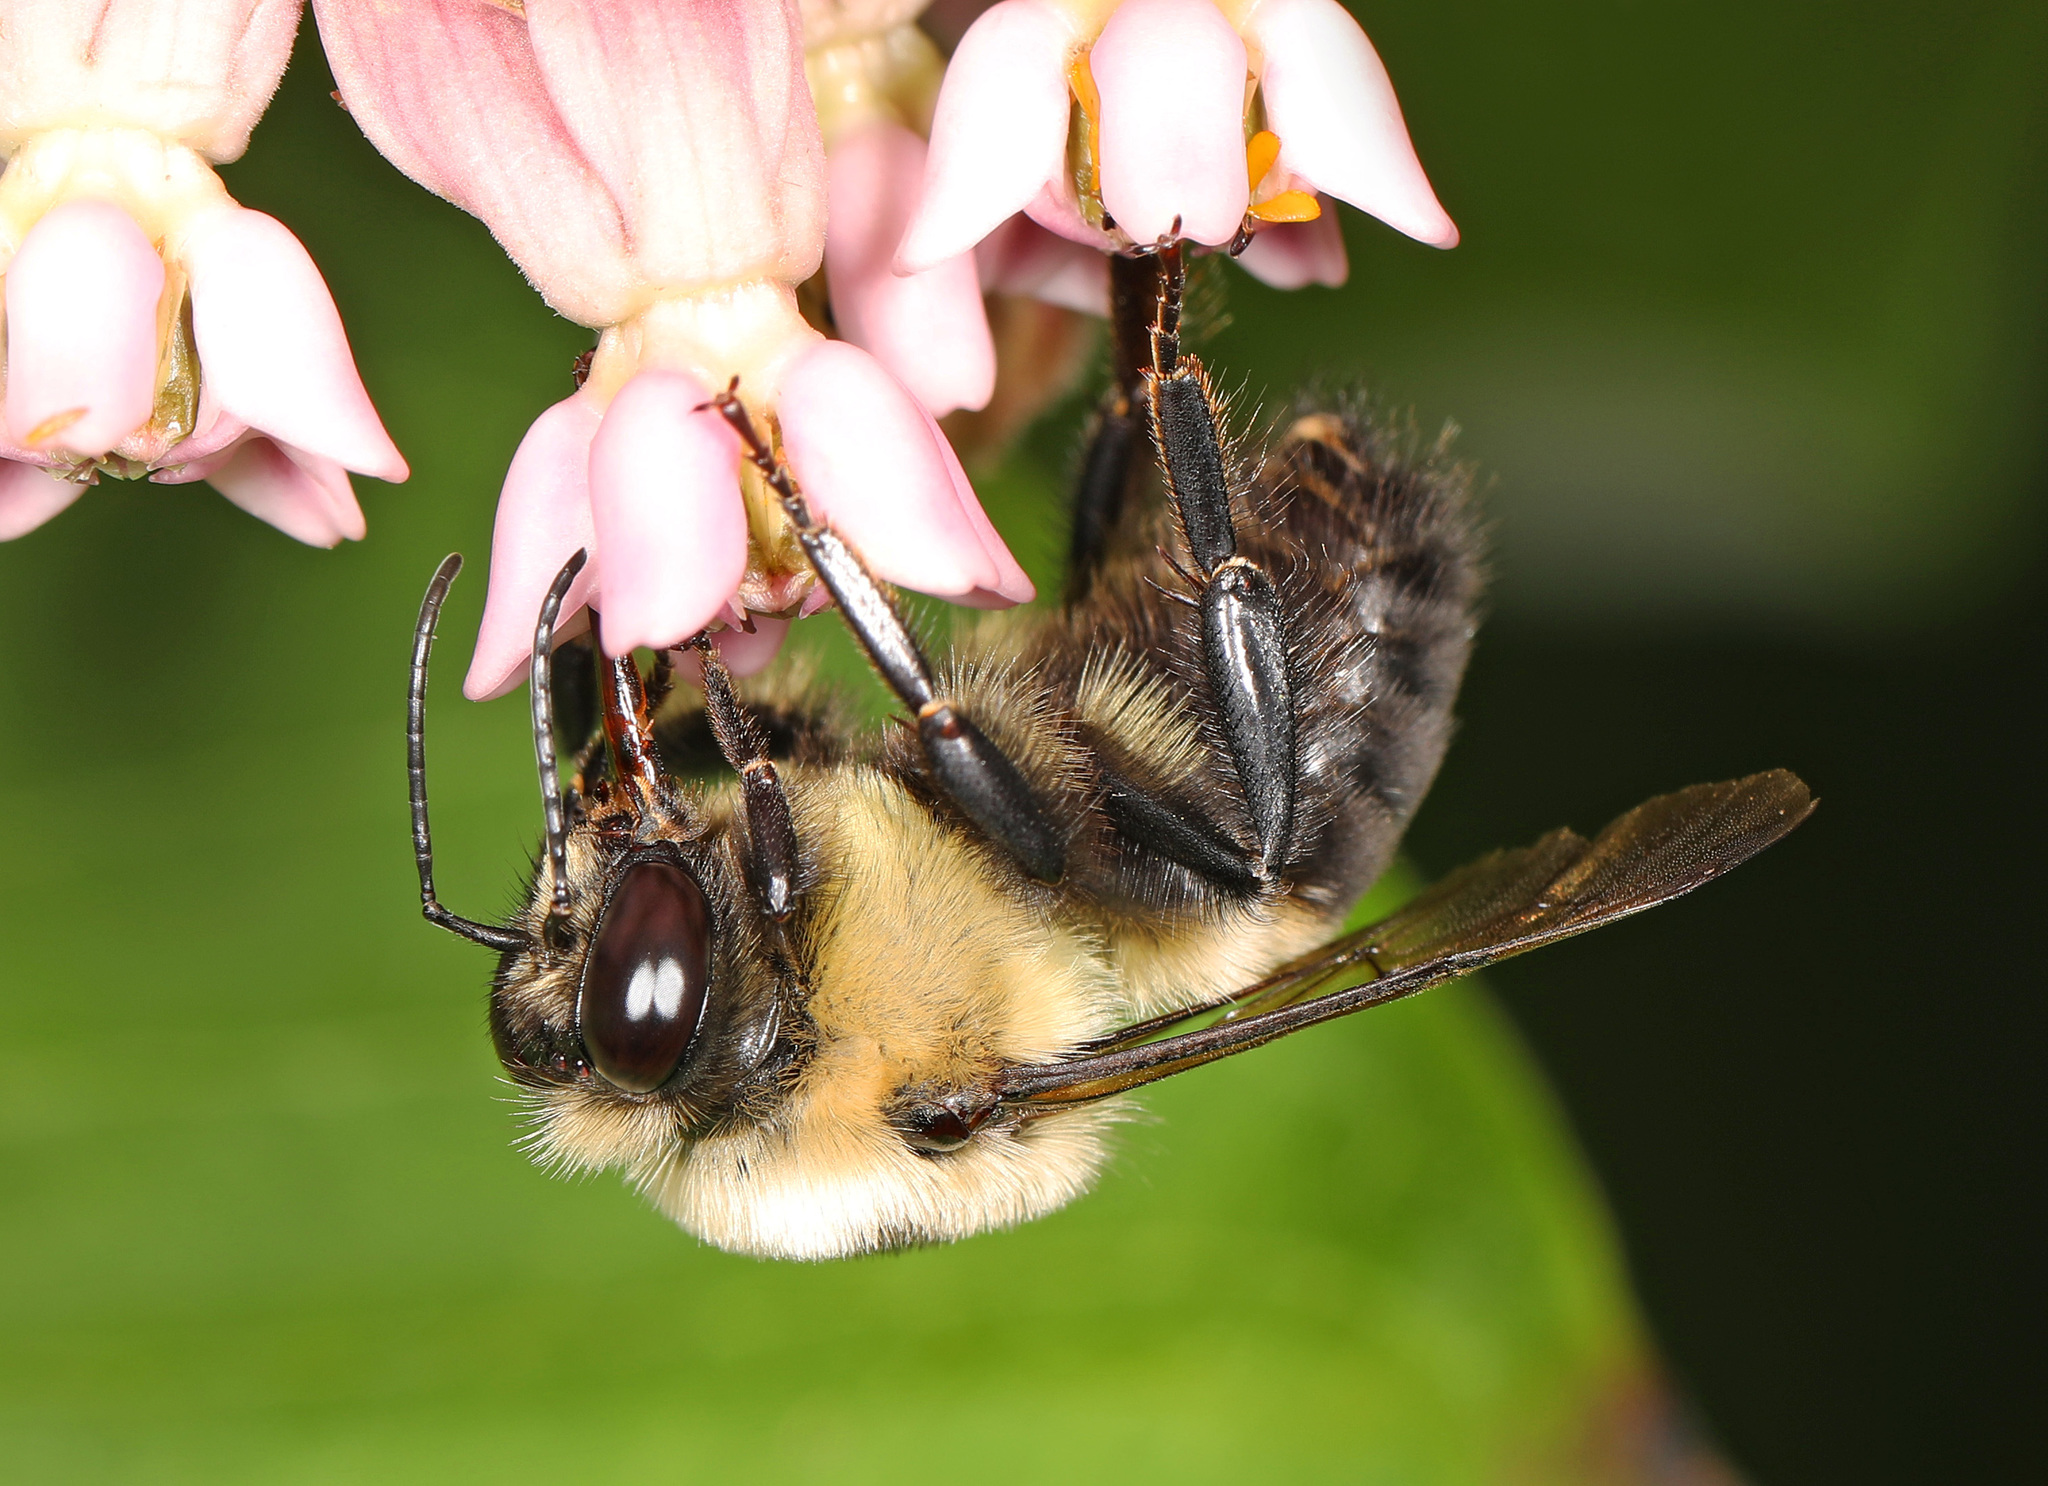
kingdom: Animalia
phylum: Arthropoda
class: Insecta
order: Hymenoptera
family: Apidae
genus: Bombus
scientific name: Bombus griseocollis
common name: Brown-belted bumble bee
